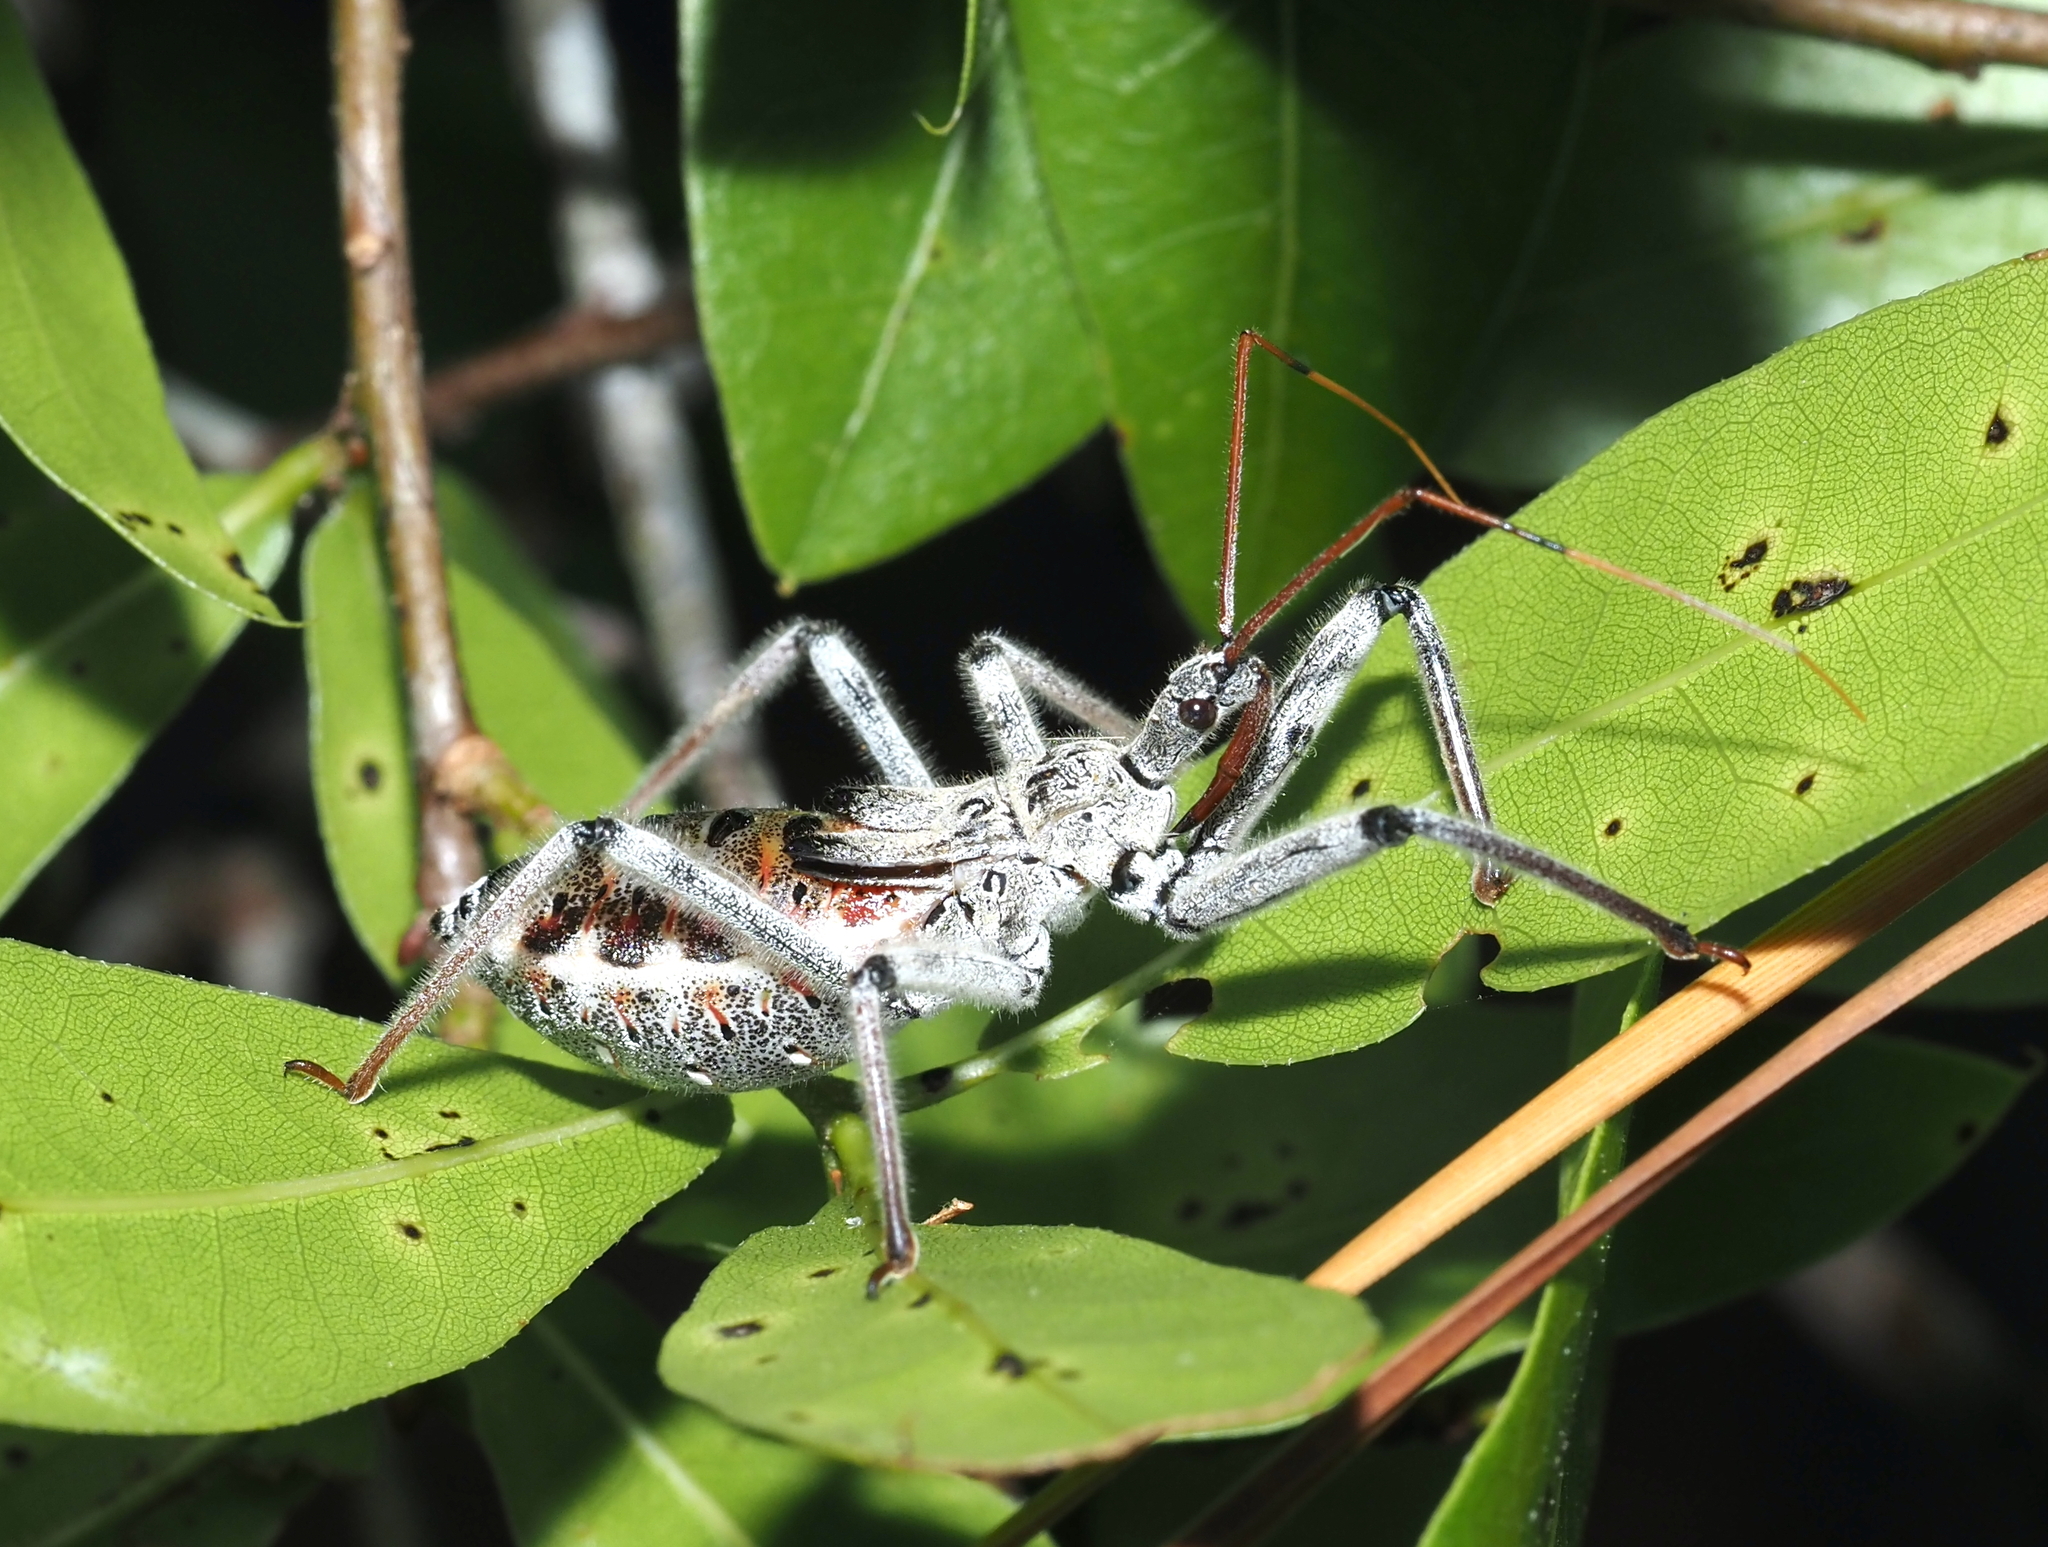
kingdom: Animalia
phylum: Arthropoda
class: Insecta
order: Hemiptera
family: Reduviidae
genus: Arilus
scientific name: Arilus cristatus
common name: North american wheel bug
